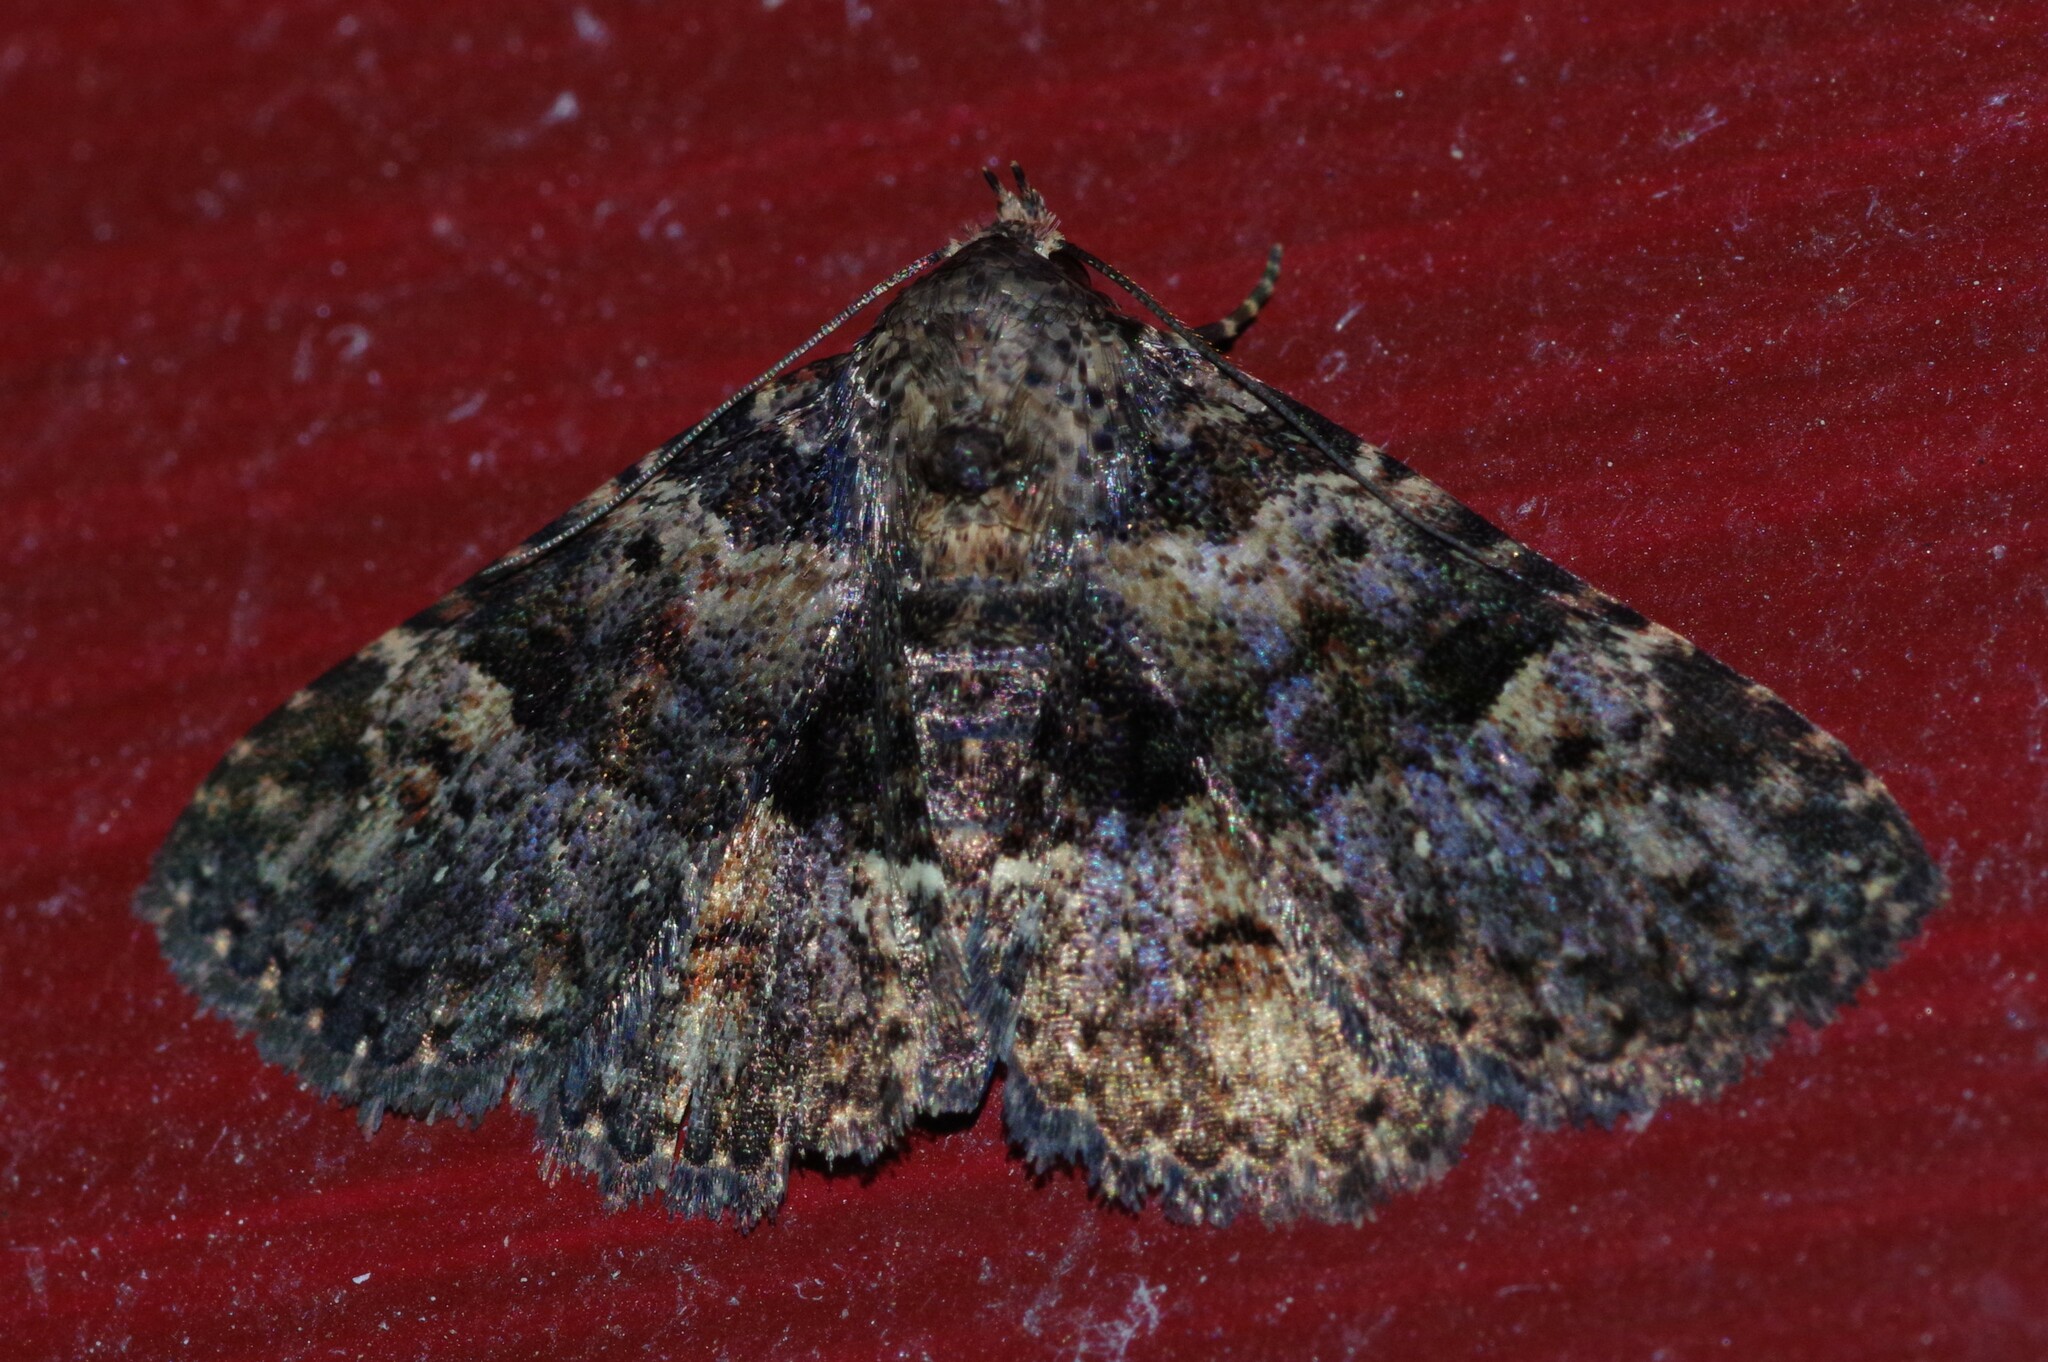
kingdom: Animalia
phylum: Arthropoda
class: Insecta
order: Lepidoptera
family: Erebidae
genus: Metalectra
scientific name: Metalectra discalis
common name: Common fungus moth
